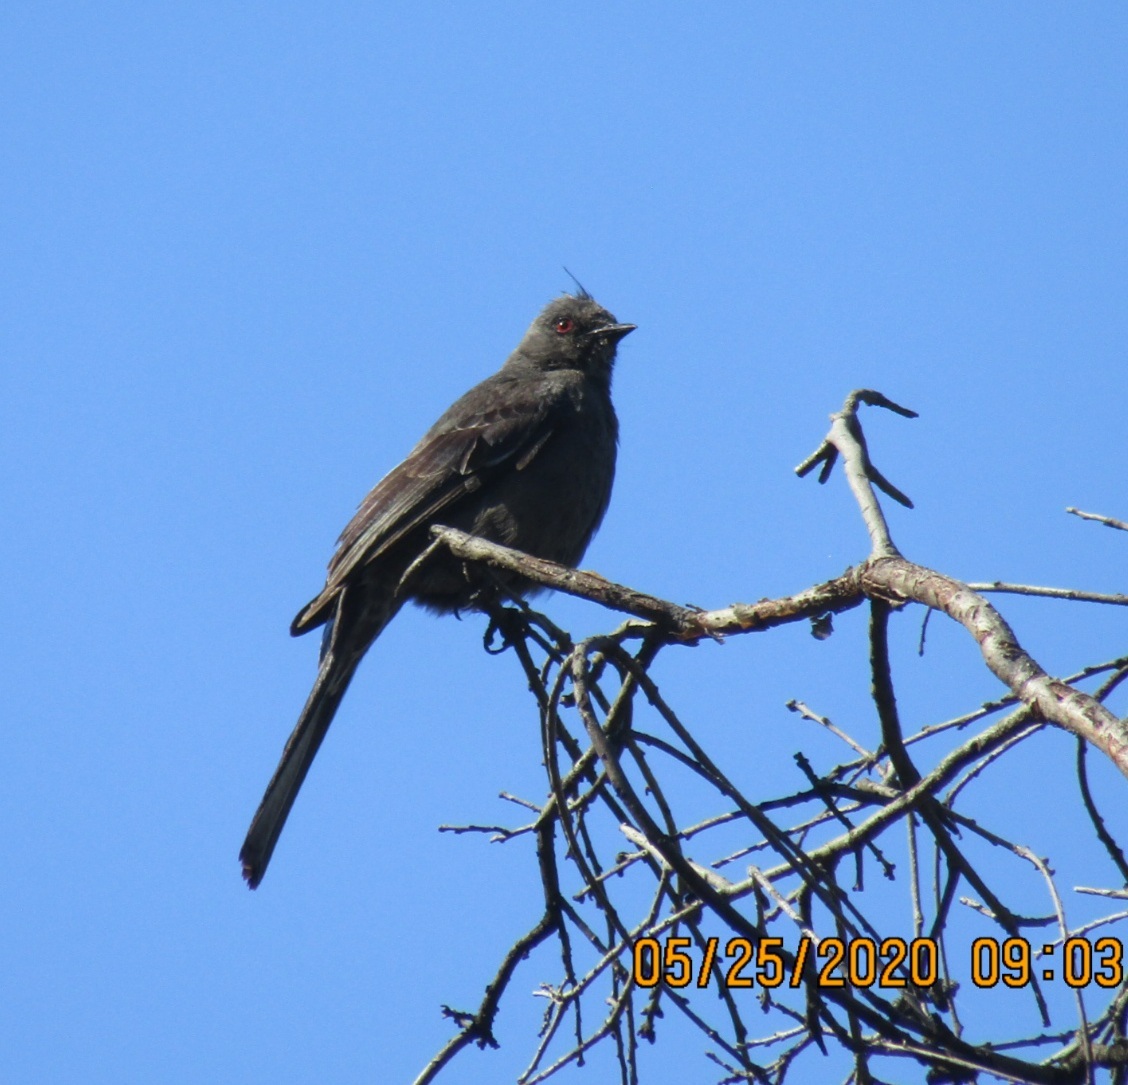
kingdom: Animalia
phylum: Chordata
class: Aves
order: Passeriformes
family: Ptilogonatidae
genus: Phainopepla
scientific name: Phainopepla nitens
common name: Phainopepla
